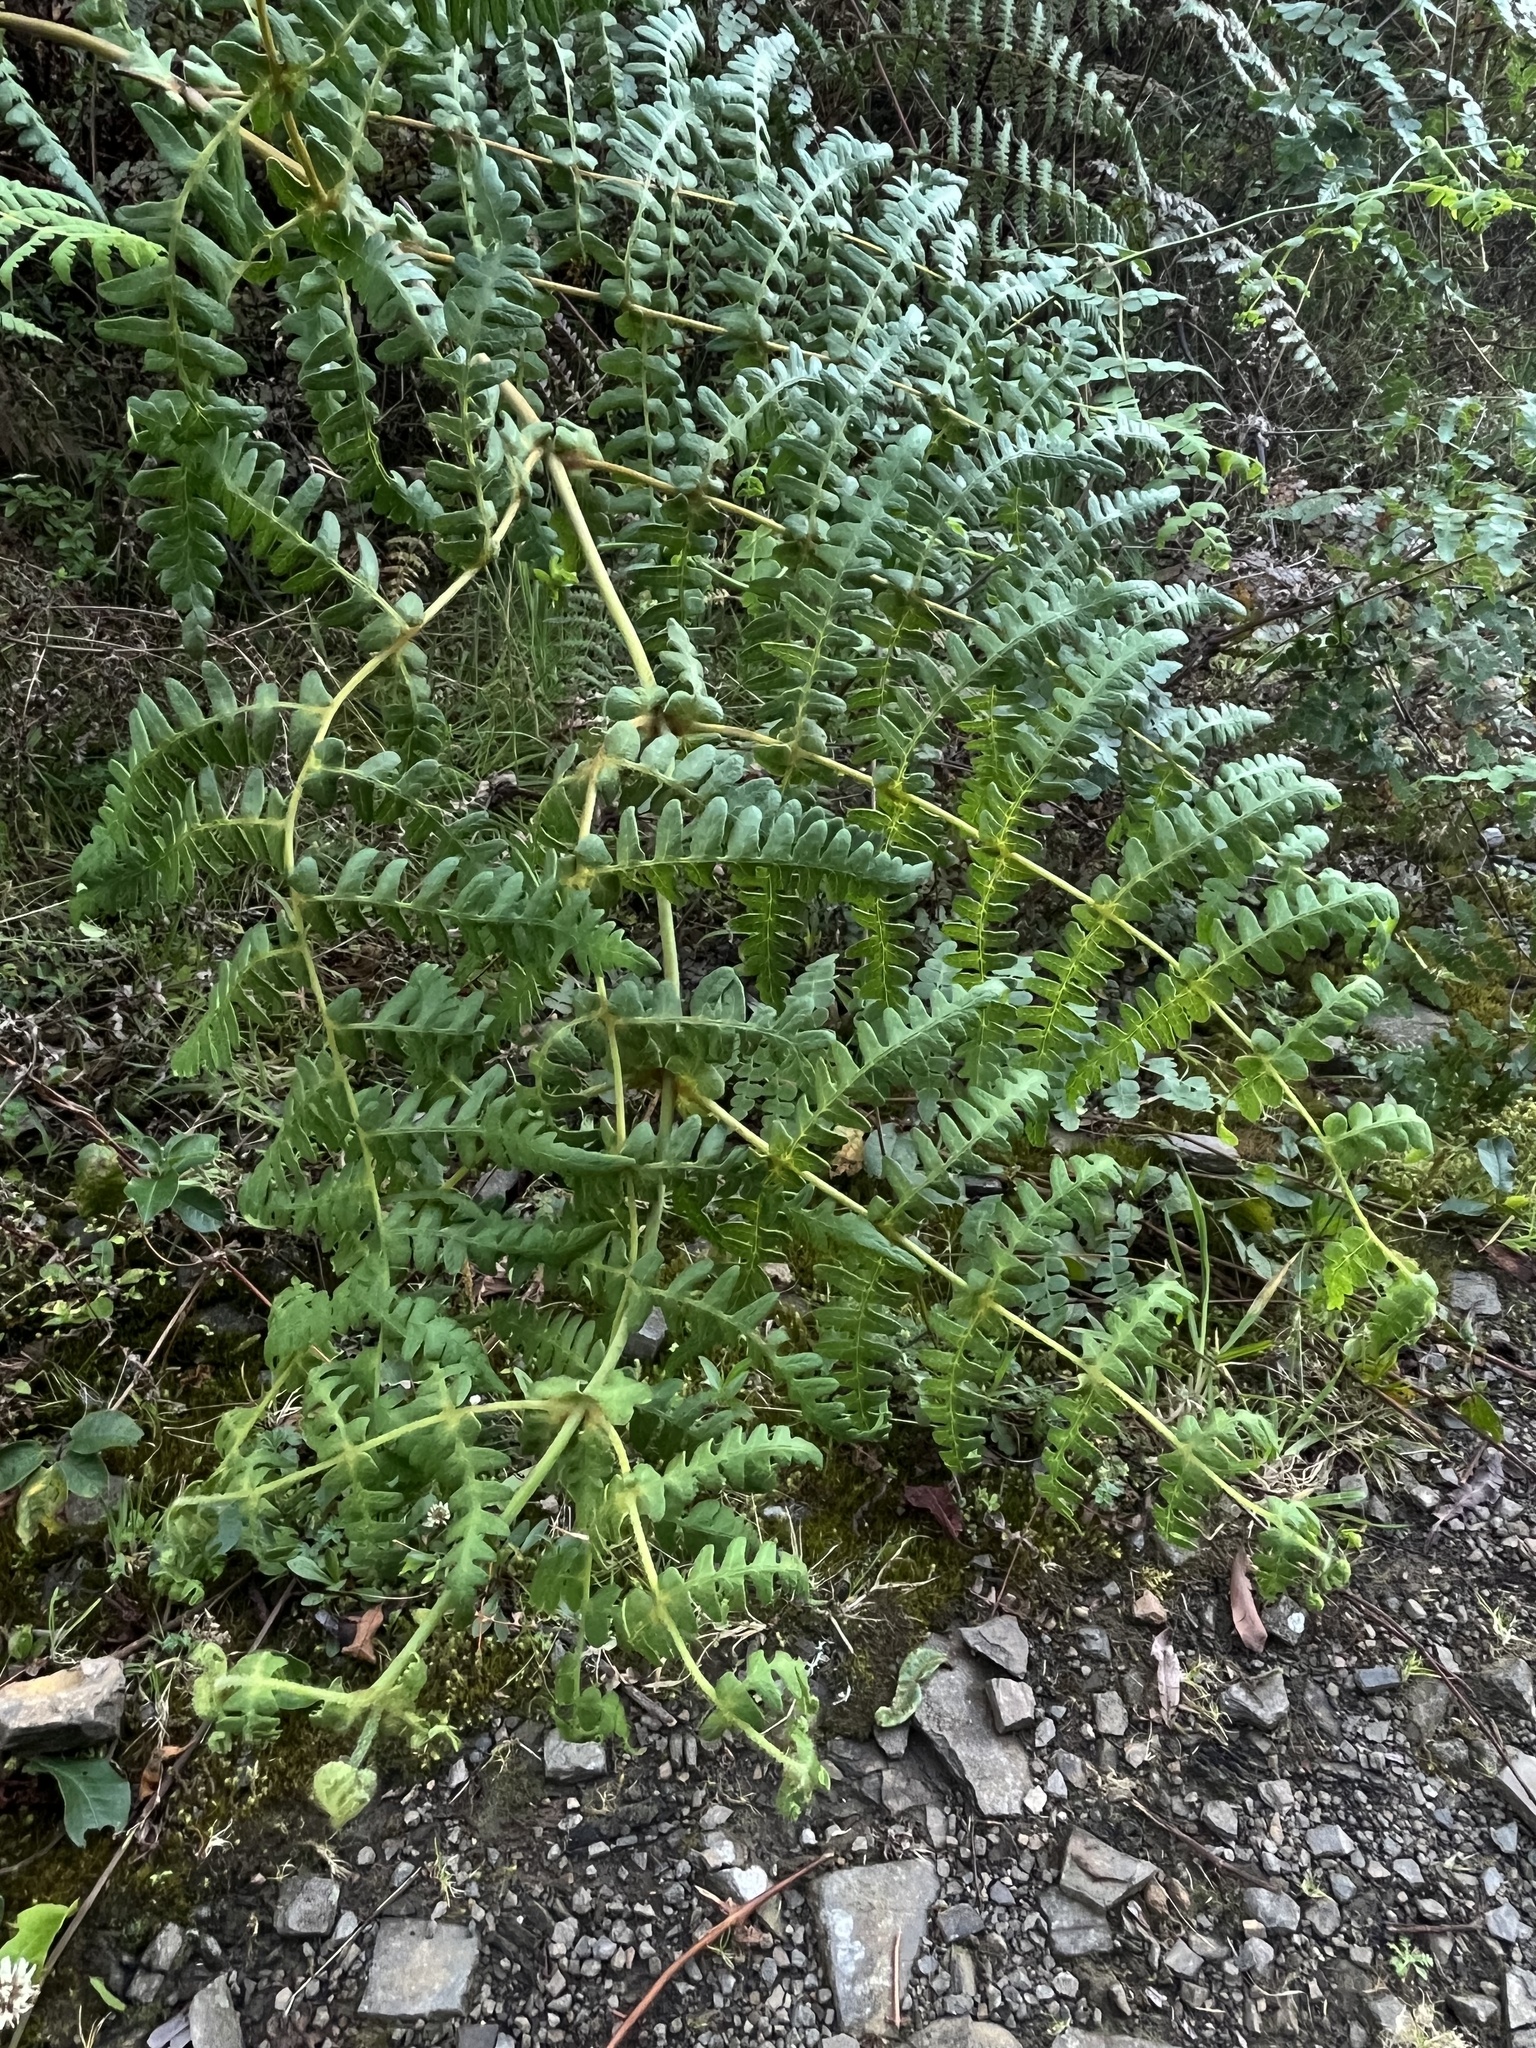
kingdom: Plantae
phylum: Tracheophyta
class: Polypodiopsida
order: Polypodiales
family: Dennstaedtiaceae
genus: Histiopteris
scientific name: Histiopteris incisa
